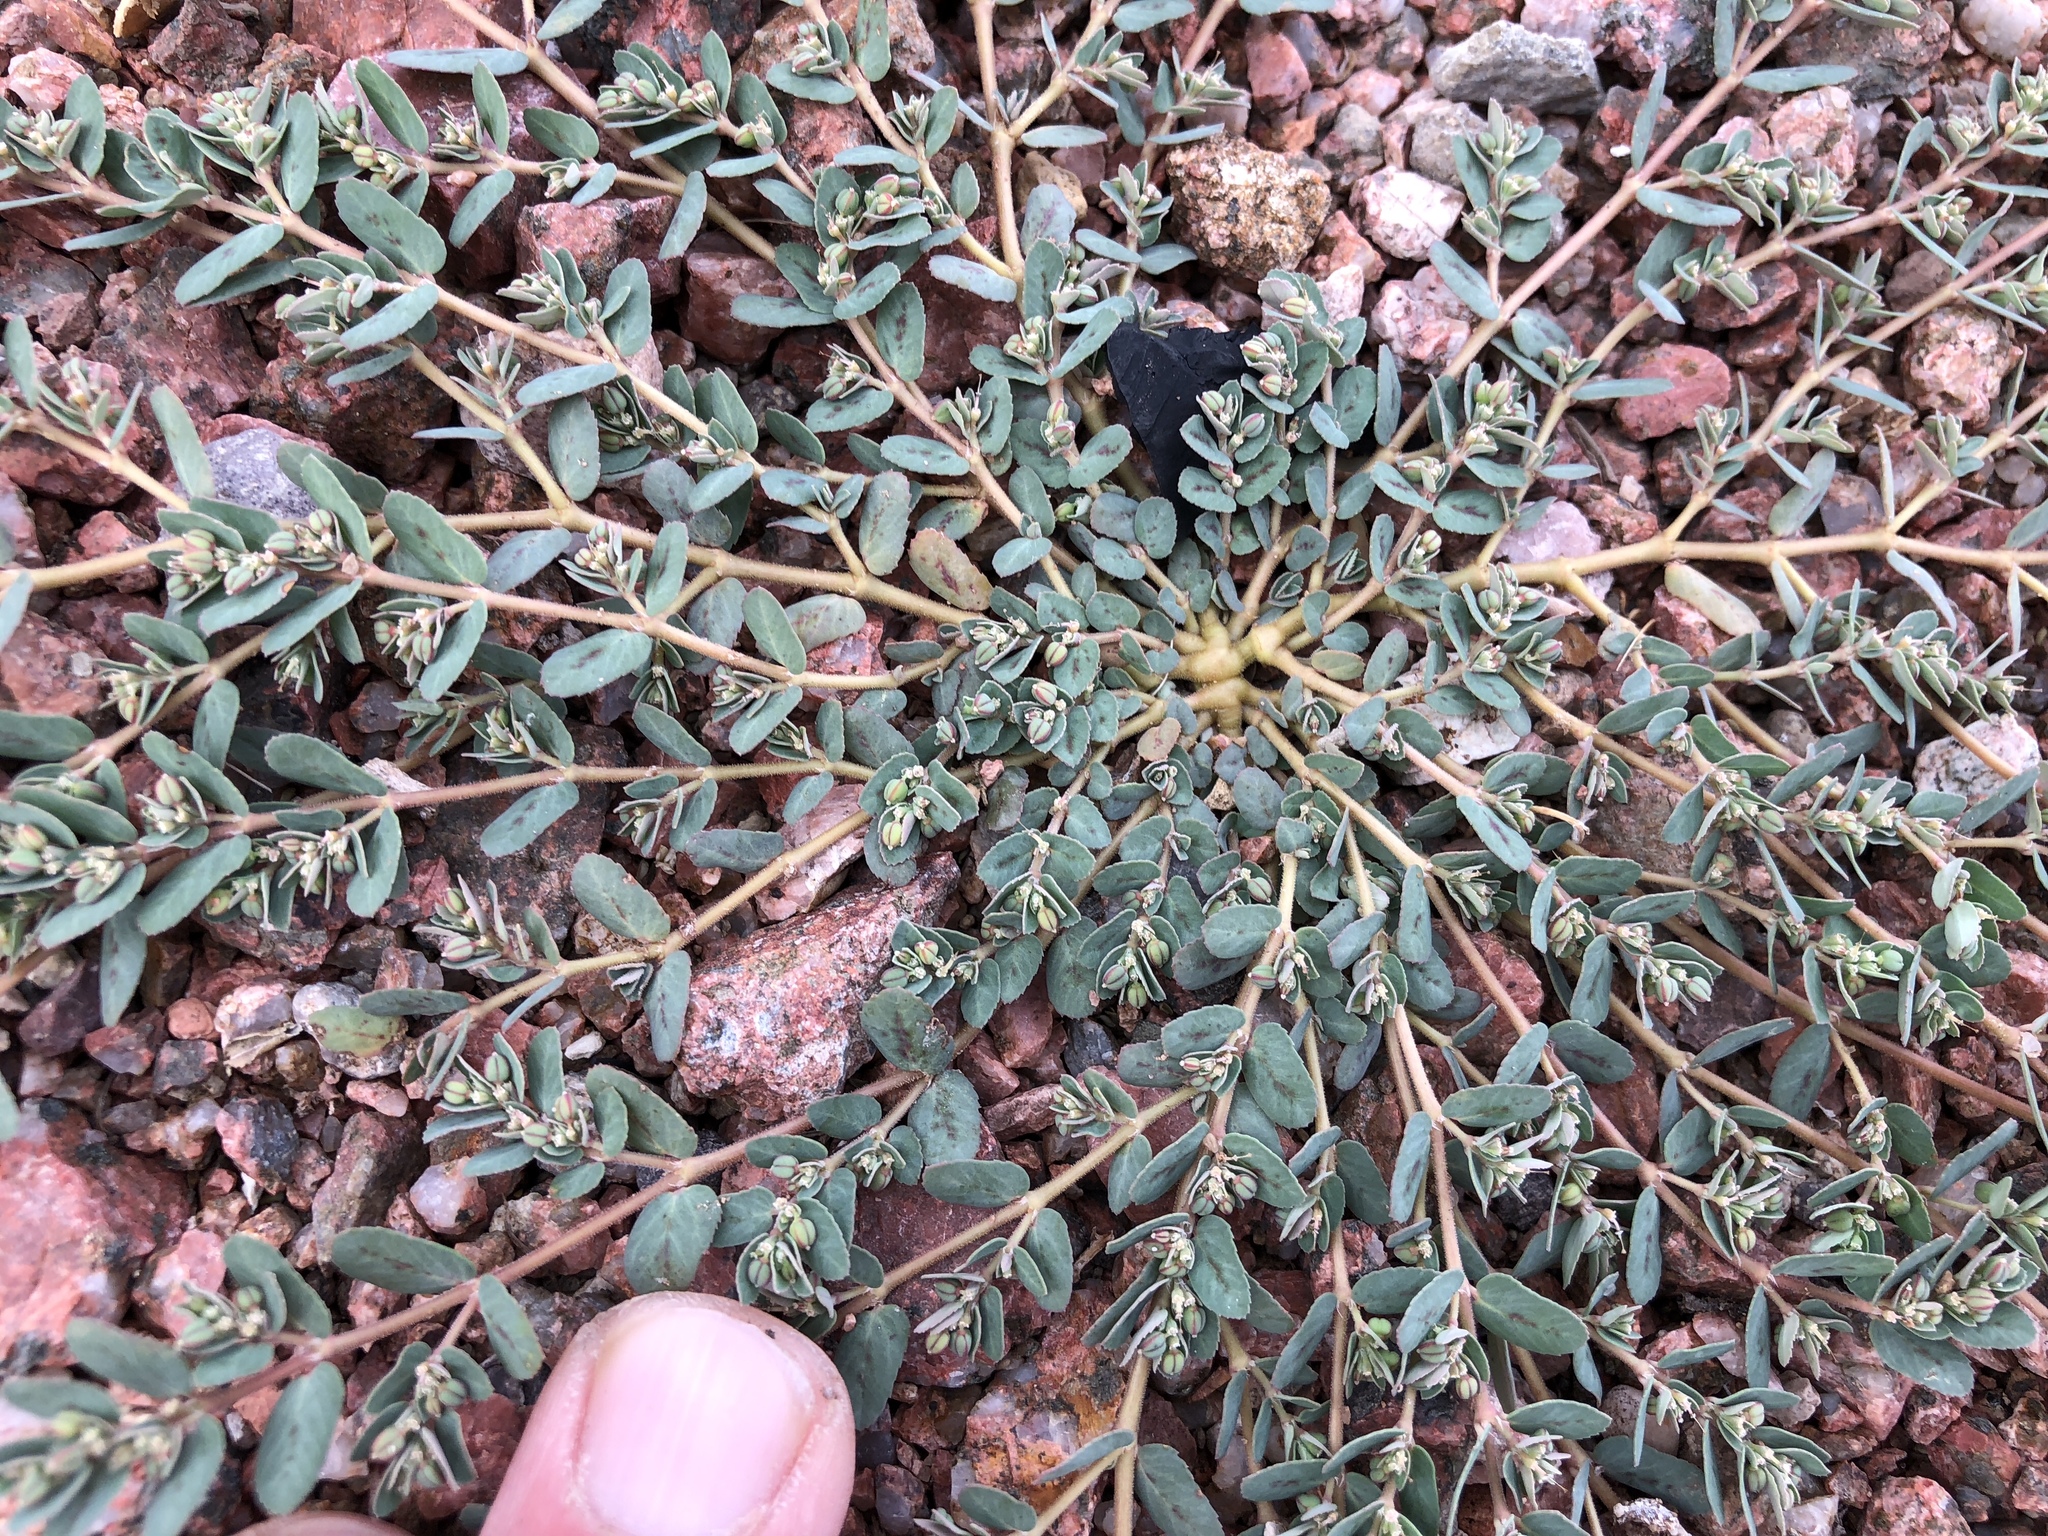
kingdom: Plantae
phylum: Tracheophyta
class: Magnoliopsida
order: Malpighiales
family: Euphorbiaceae
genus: Euphorbia
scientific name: Euphorbia abramsiana
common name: Abram's spurge
